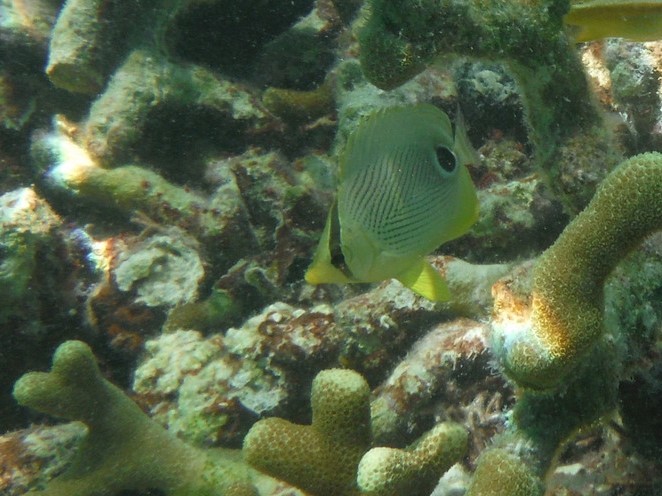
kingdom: Animalia
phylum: Chordata
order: Perciformes
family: Chaetodontidae
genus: Chaetodon
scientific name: Chaetodon capistratus
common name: Kete
